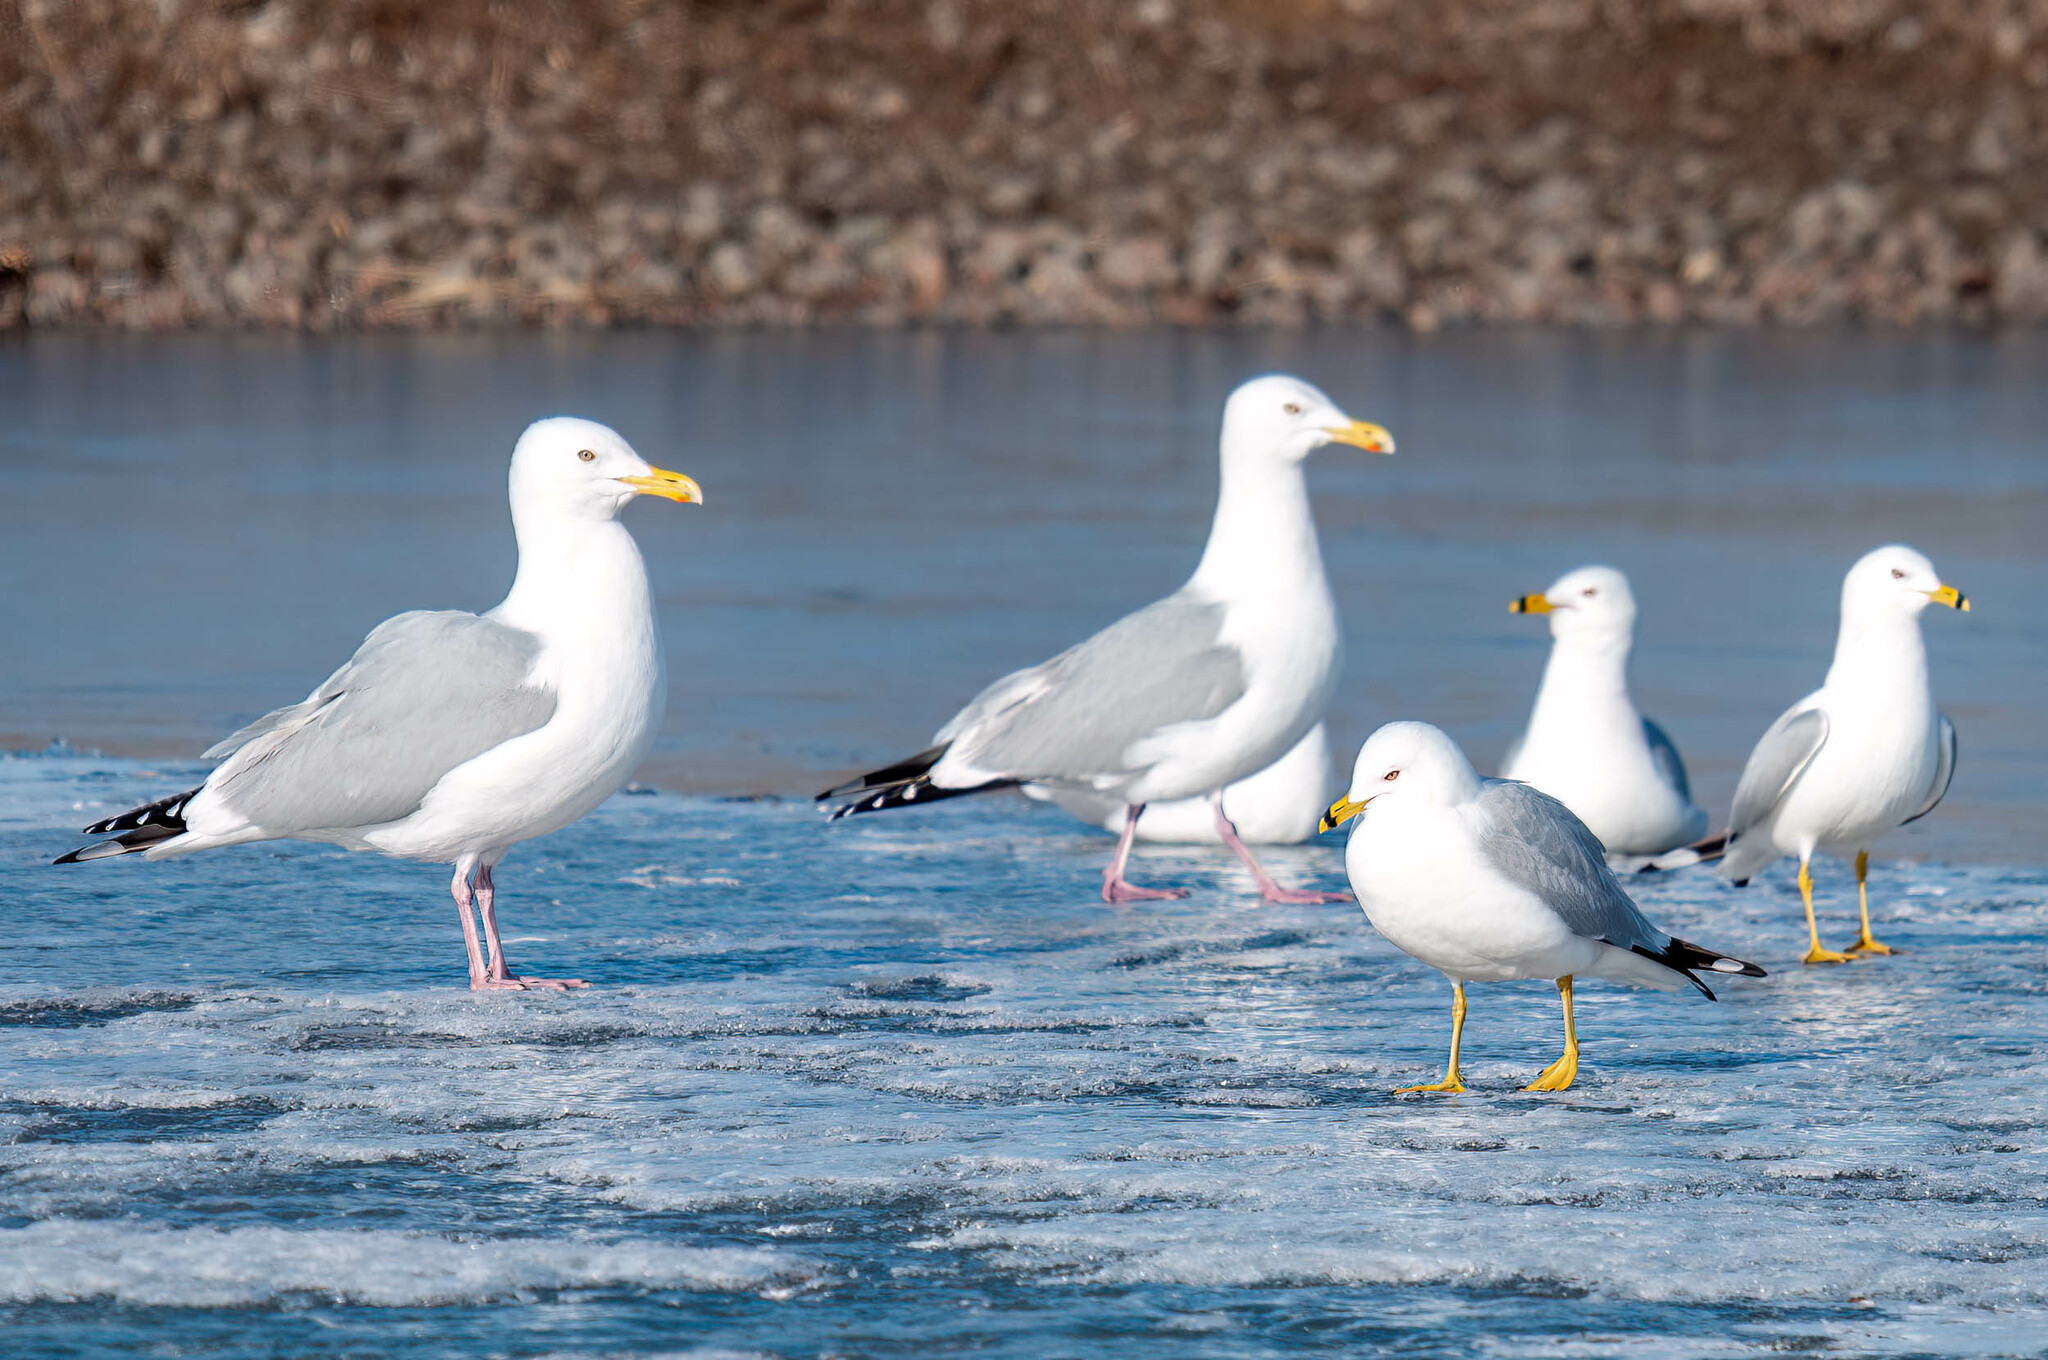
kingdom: Animalia
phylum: Chordata
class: Aves
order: Charadriiformes
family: Laridae
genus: Larus
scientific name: Larus argentatus
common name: Herring gull
